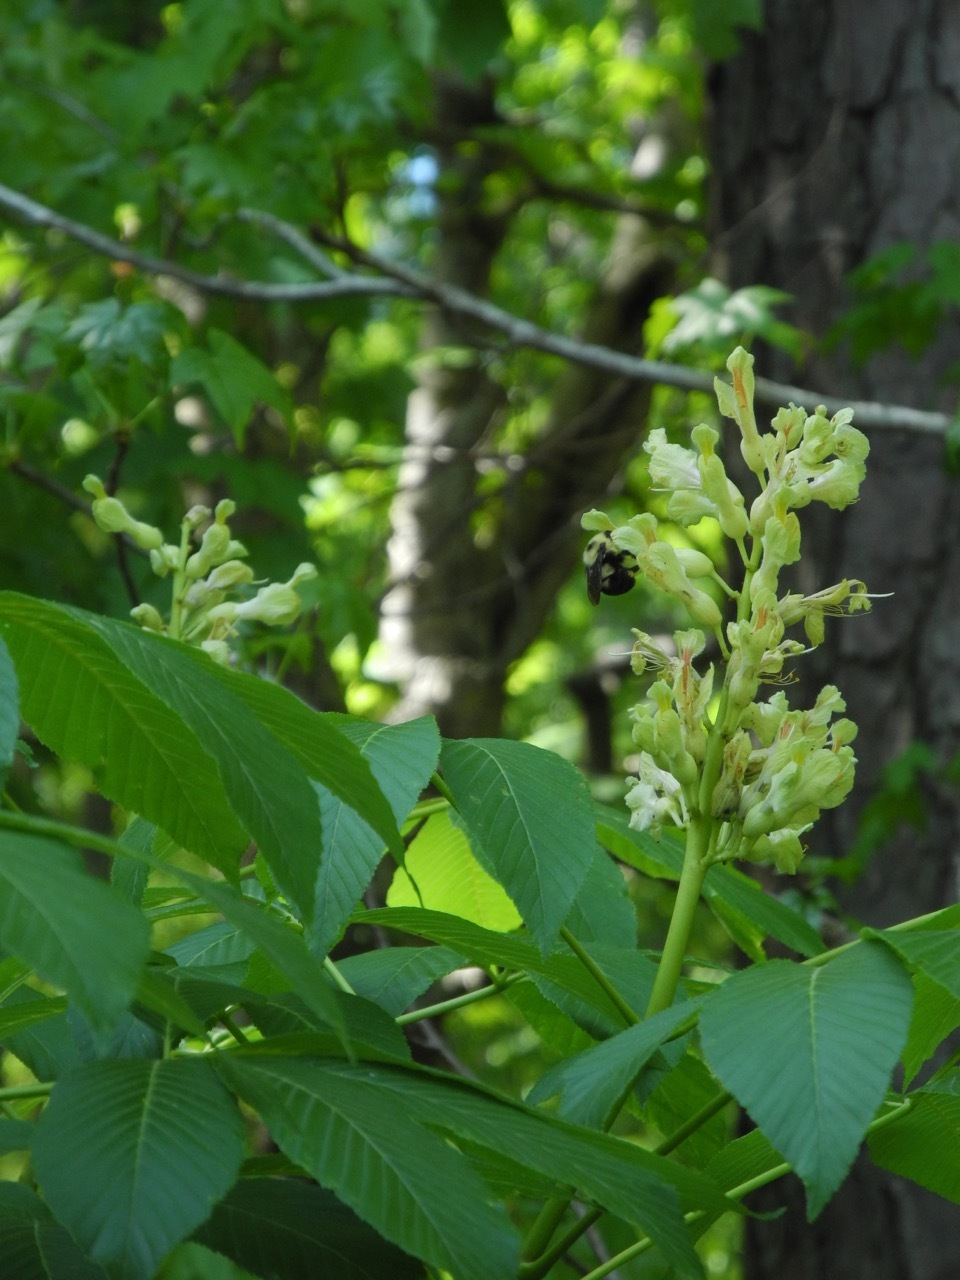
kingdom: Plantae
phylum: Tracheophyta
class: Magnoliopsida
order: Sapindales
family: Sapindaceae
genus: Aesculus
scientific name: Aesculus sylvatica
